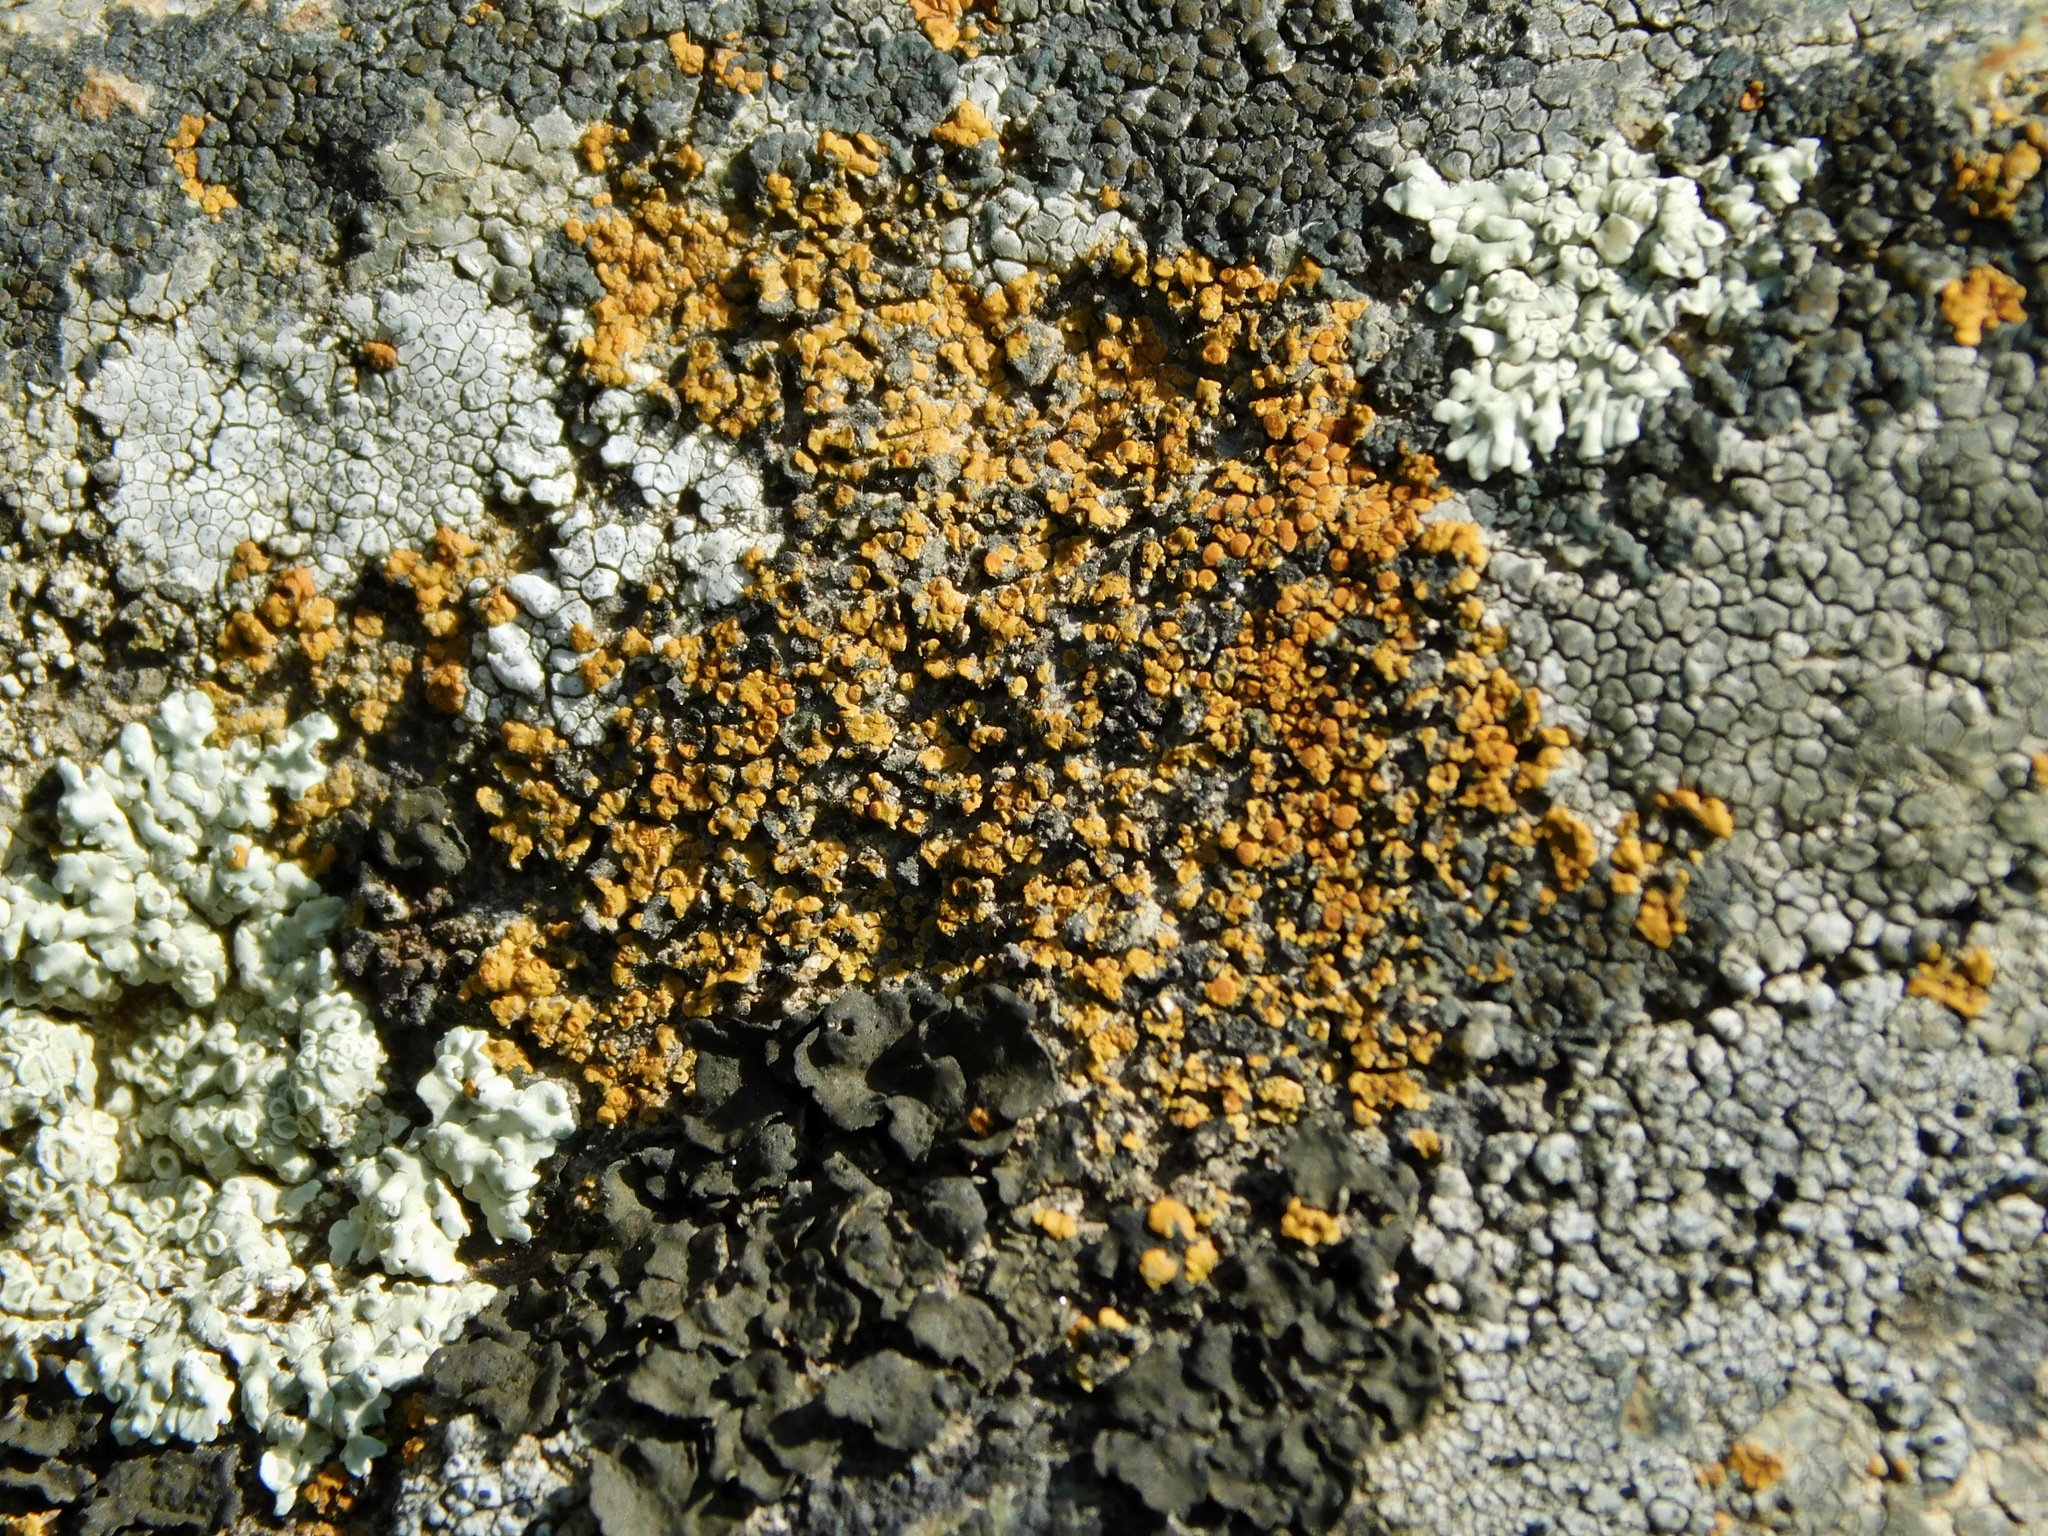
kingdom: Fungi
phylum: Ascomycota
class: Lecanoromycetes
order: Teloschistales
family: Teloschistaceae
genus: Squamulea
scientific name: Squamulea subsoluta
